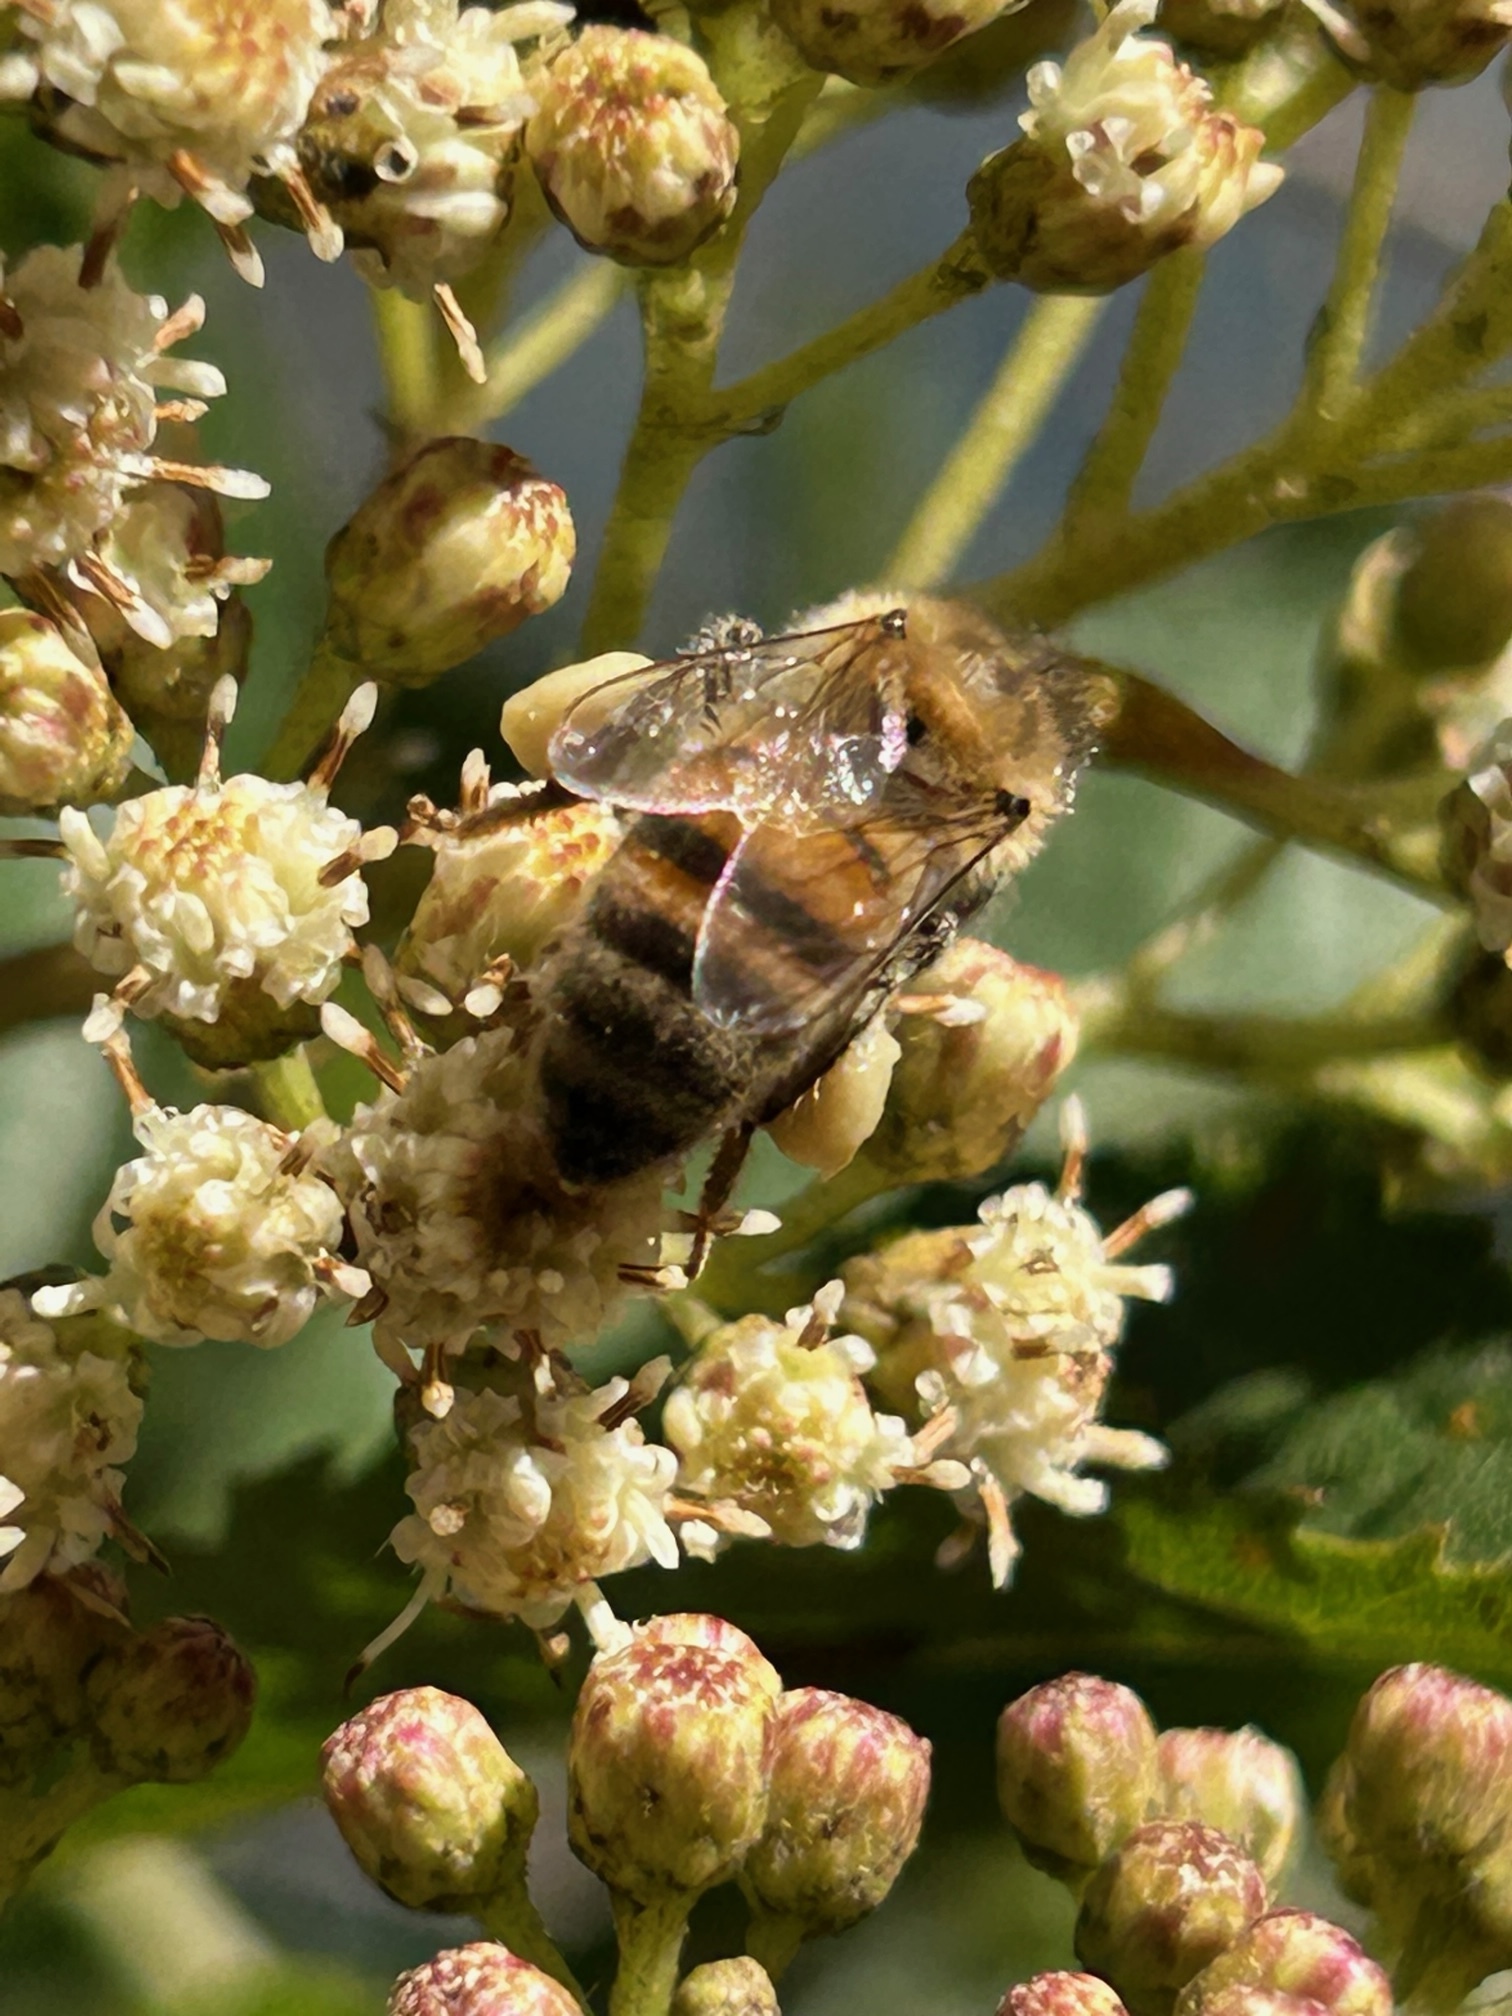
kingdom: Animalia
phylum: Arthropoda
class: Insecta
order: Hymenoptera
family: Apidae
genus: Apis
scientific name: Apis mellifera
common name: Honey bee
